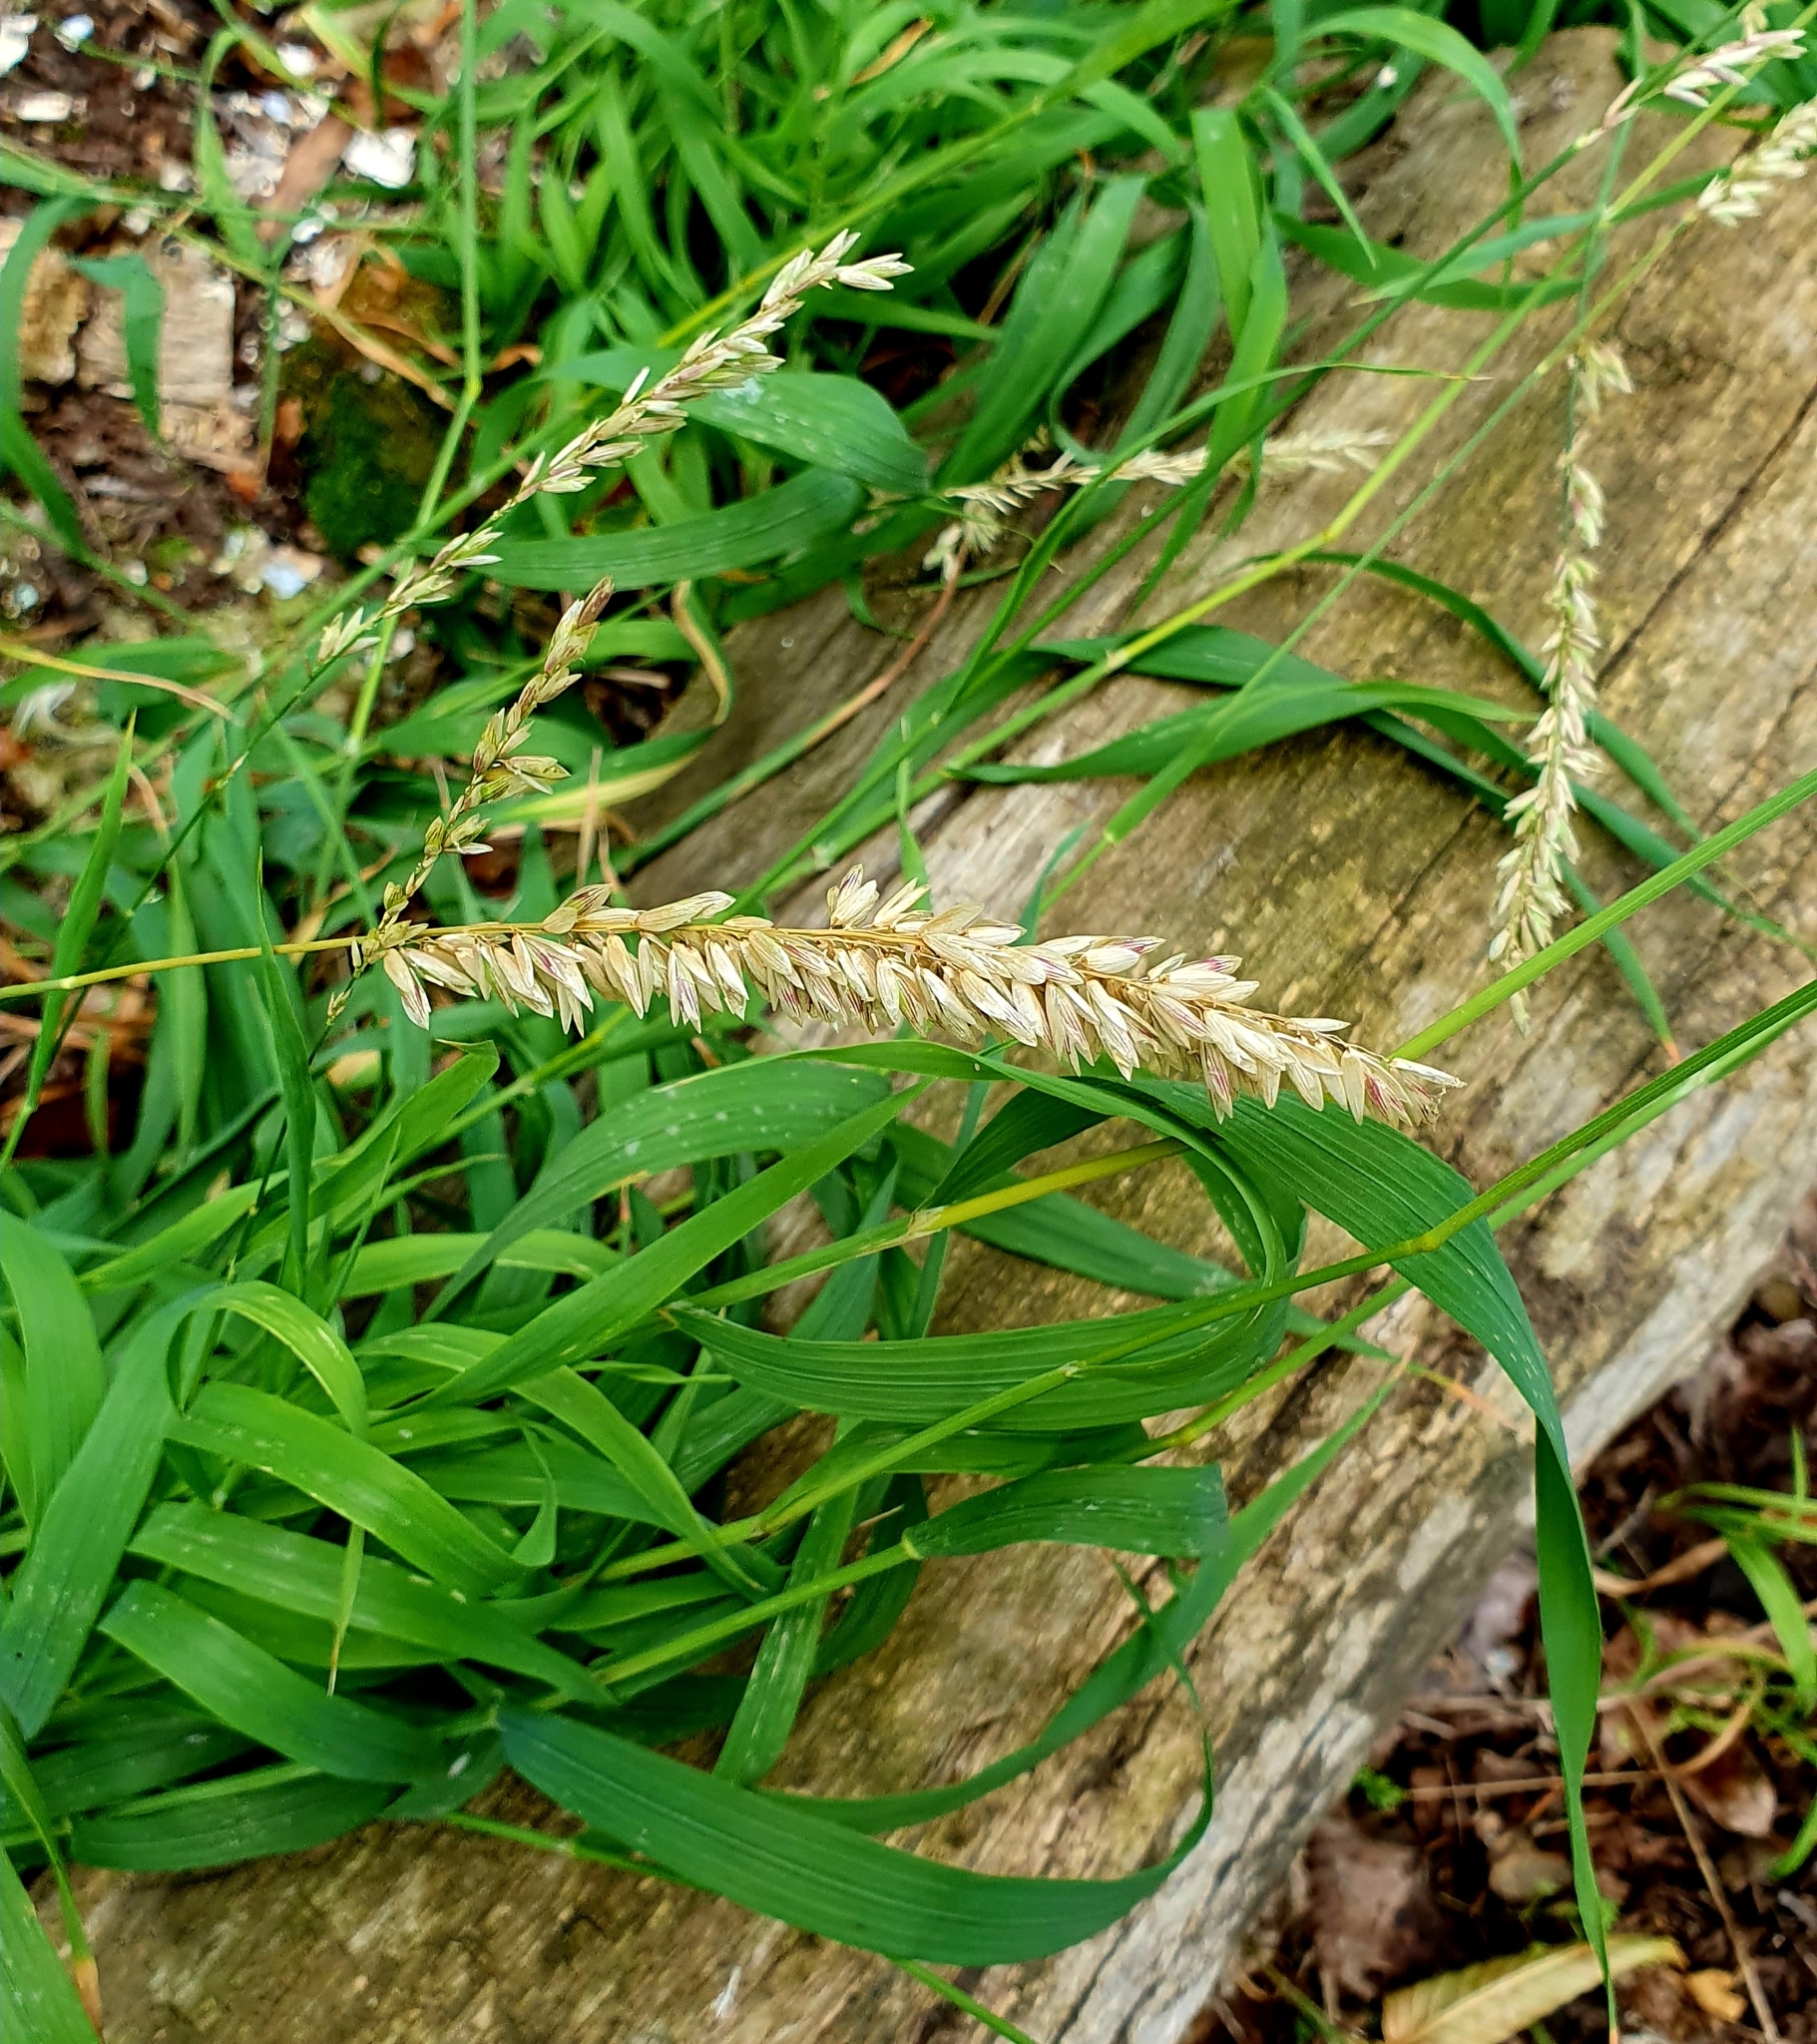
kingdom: Plantae
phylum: Tracheophyta
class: Liliopsida
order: Poales
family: Poaceae
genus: Melica
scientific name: Melica altissima
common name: Siberian melicgrass
